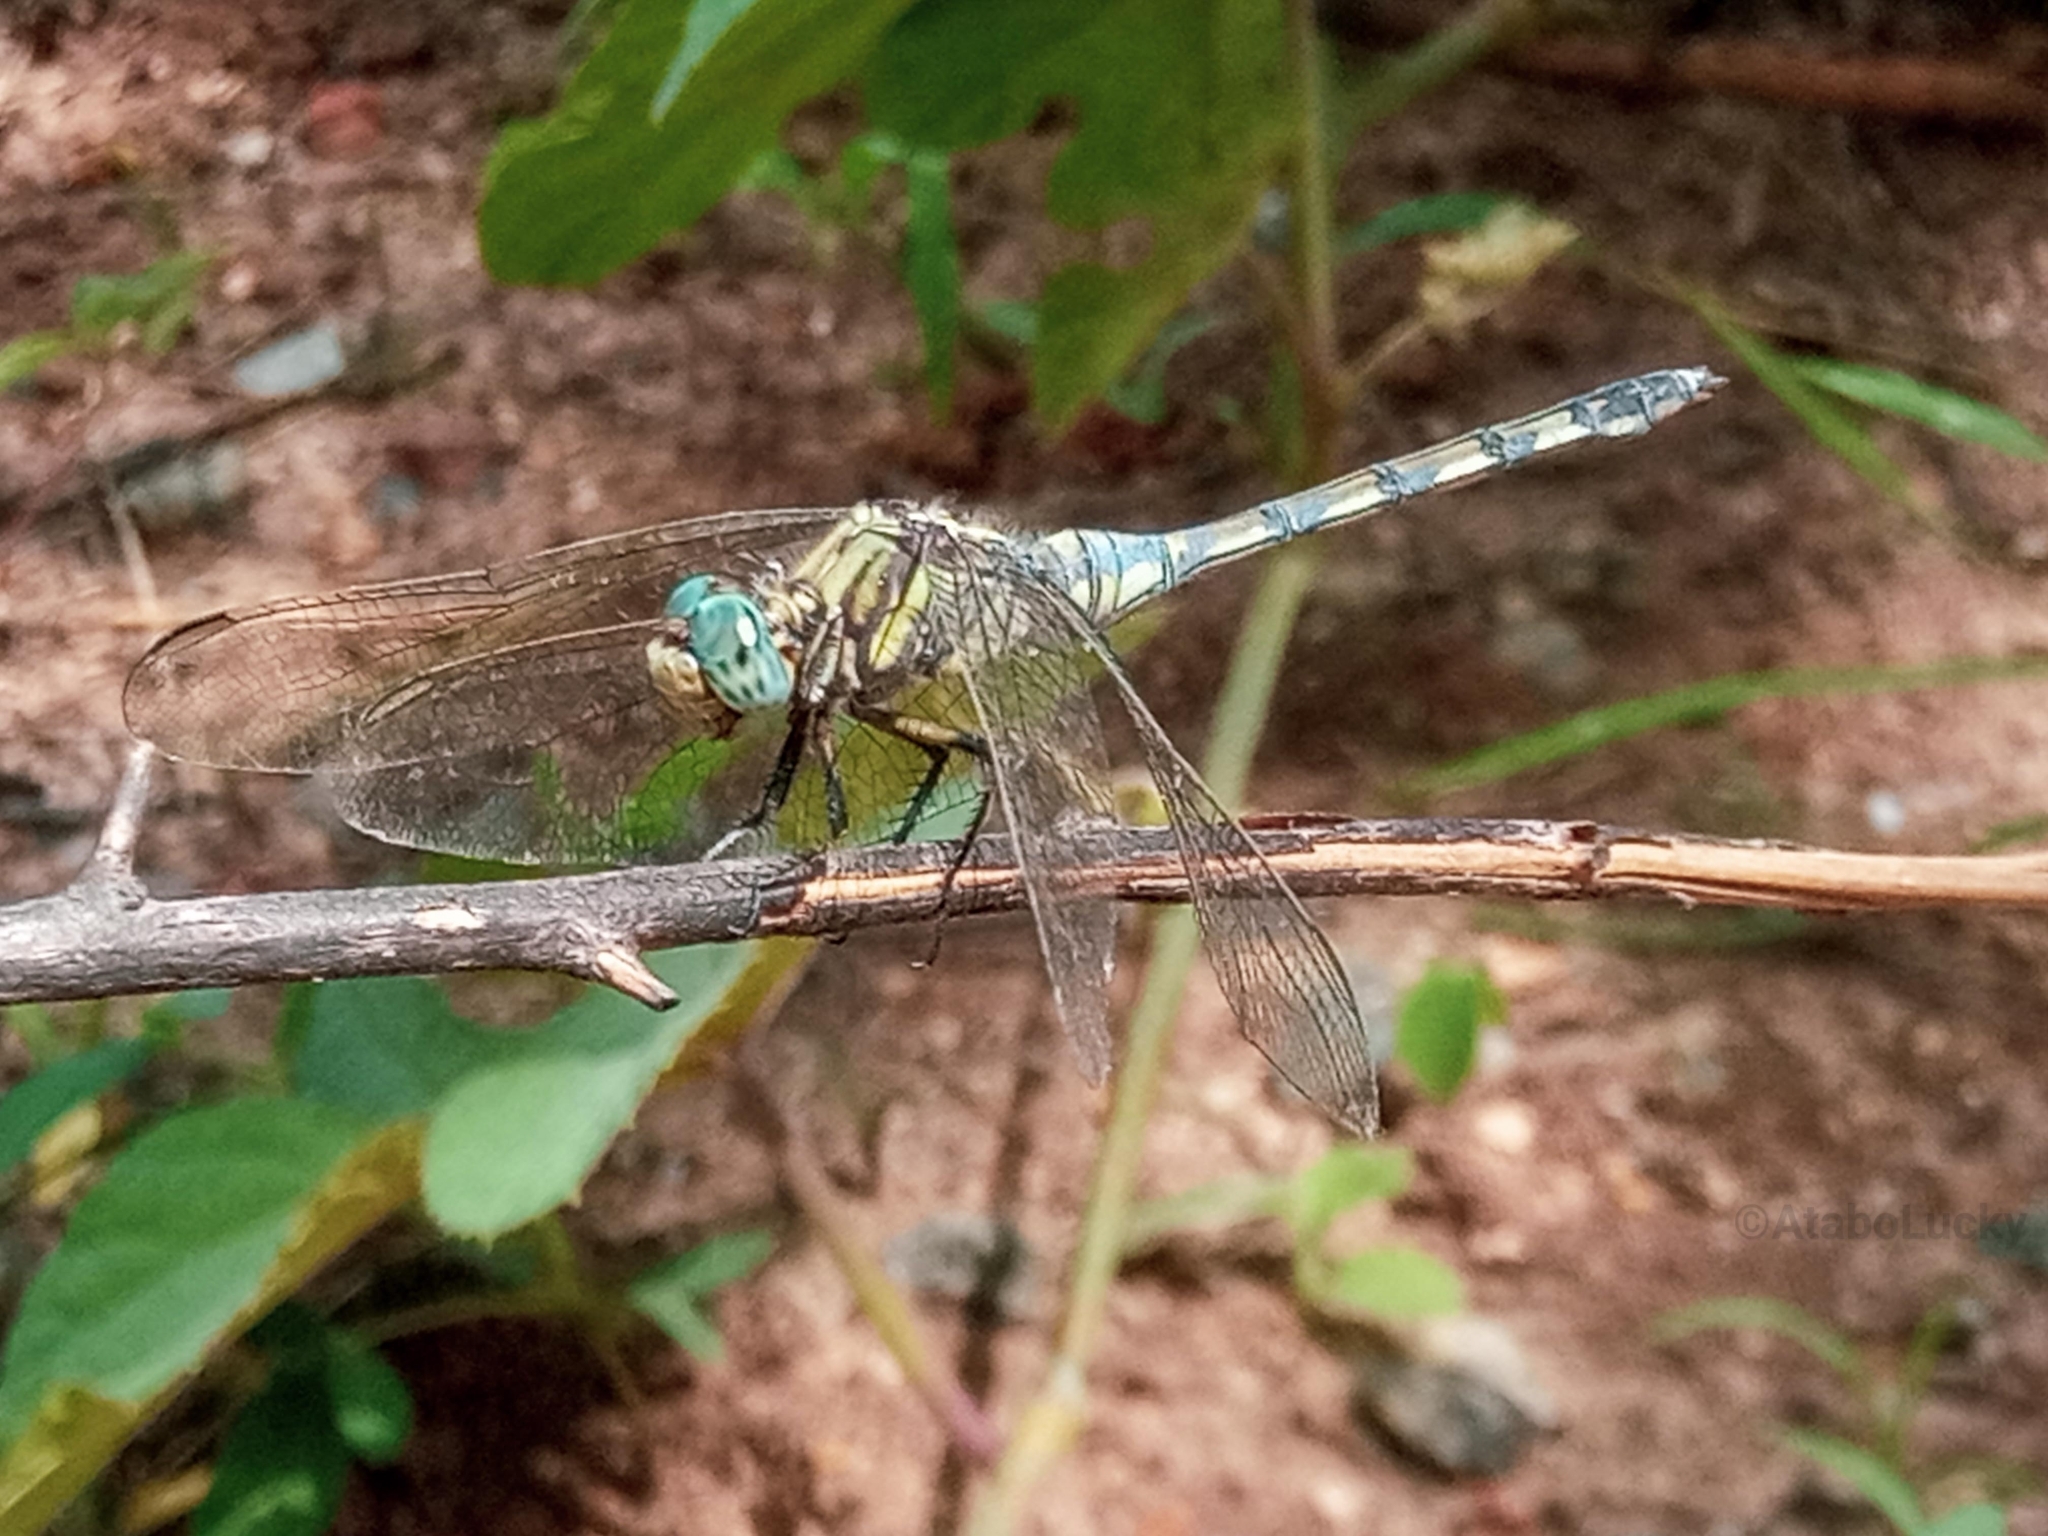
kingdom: Animalia
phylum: Arthropoda
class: Insecta
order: Odonata
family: Libellulidae
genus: Orthetrum
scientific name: Orthetrum brachiale
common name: Banded skimmer
